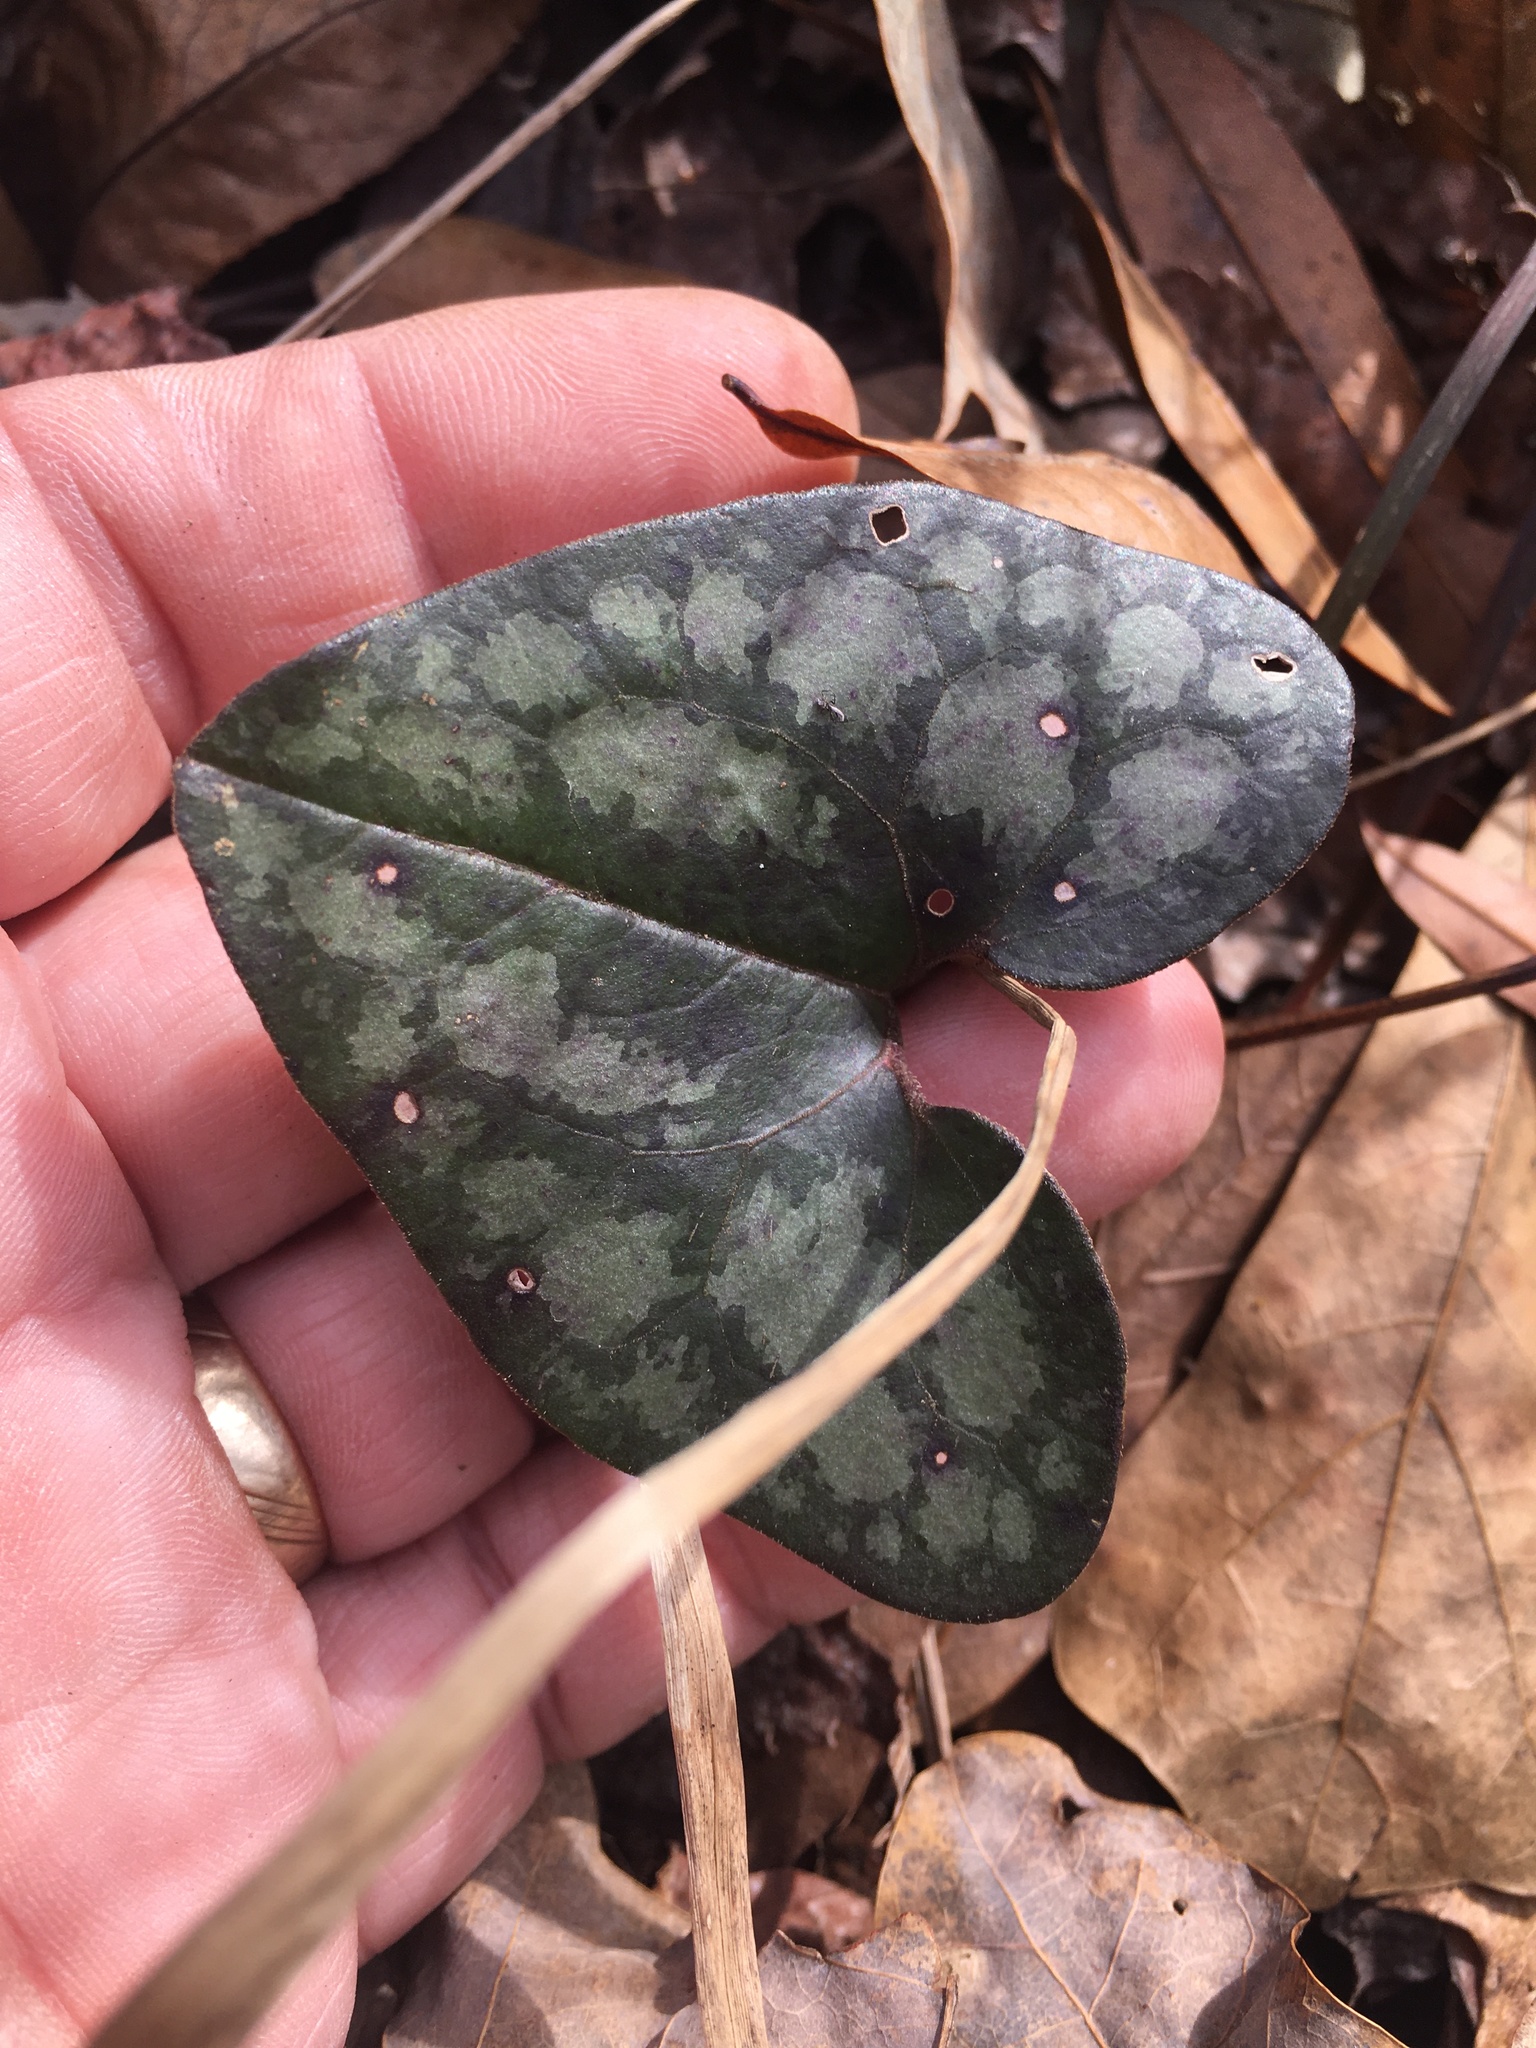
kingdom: Plantae
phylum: Tracheophyta
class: Magnoliopsida
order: Piperales
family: Aristolochiaceae
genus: Hexastylis
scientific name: Hexastylis arifolia
